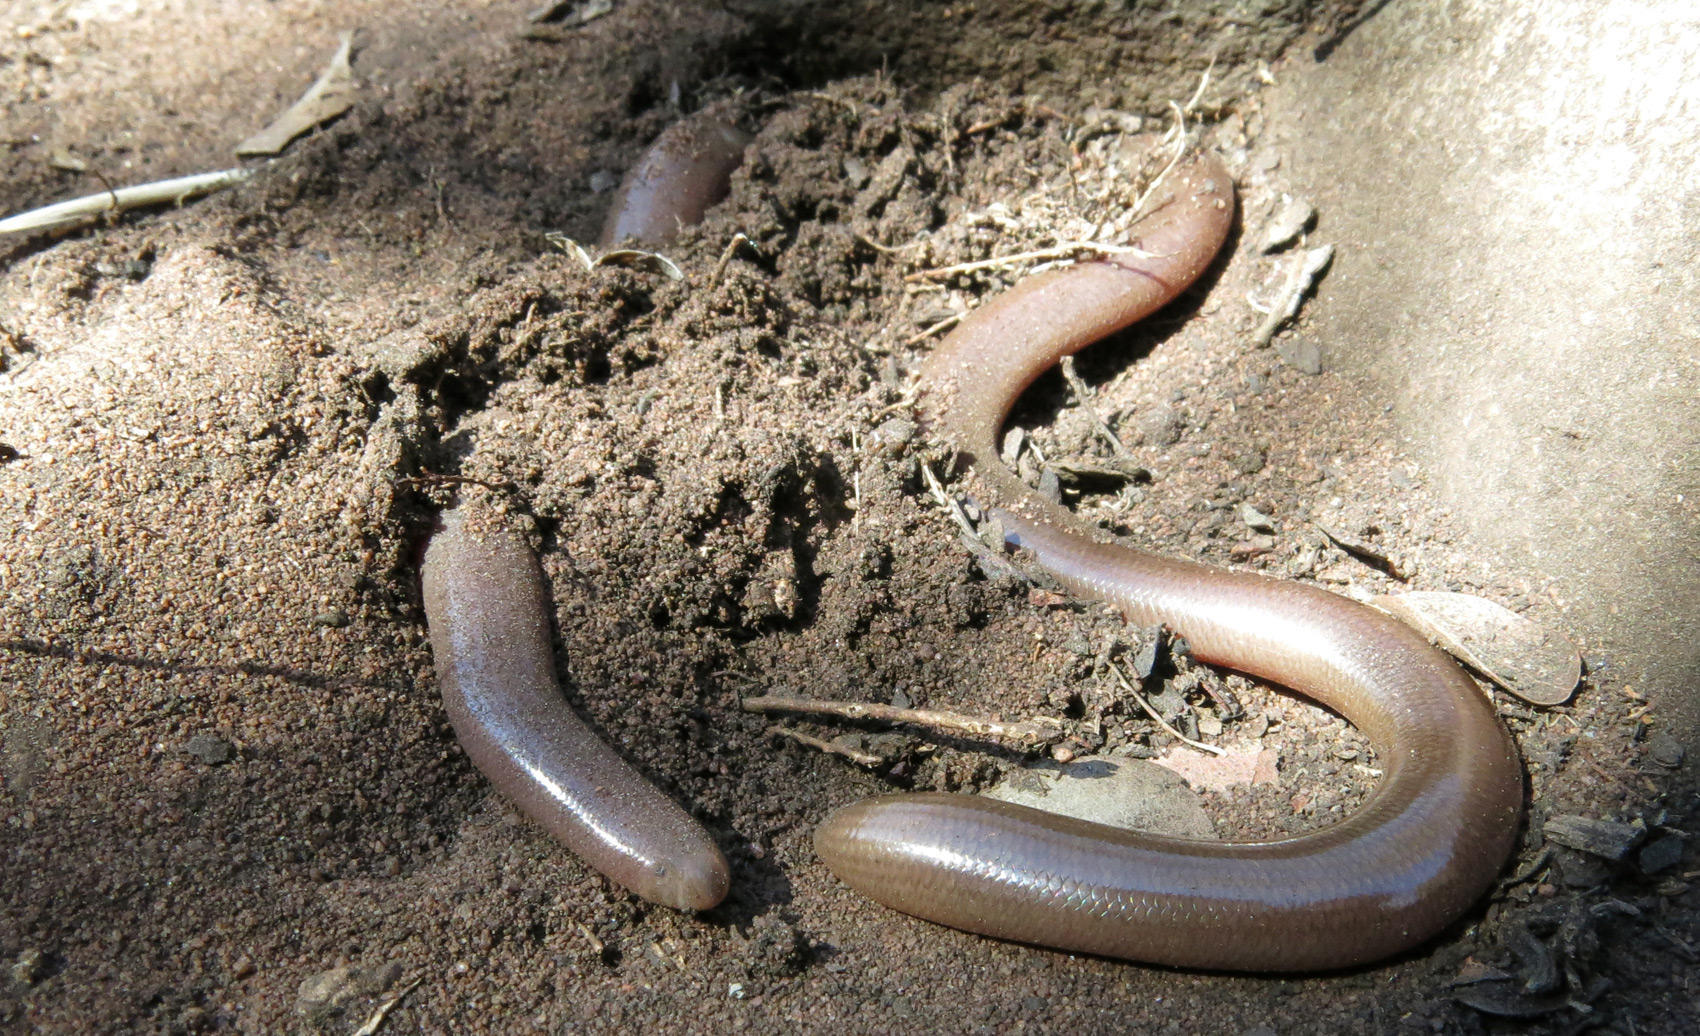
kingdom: Animalia
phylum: Chordata
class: Squamata
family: Typhlopidae
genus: Afrotyphlops
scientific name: Afrotyphlops bibronii
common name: Bibron's blind snake
